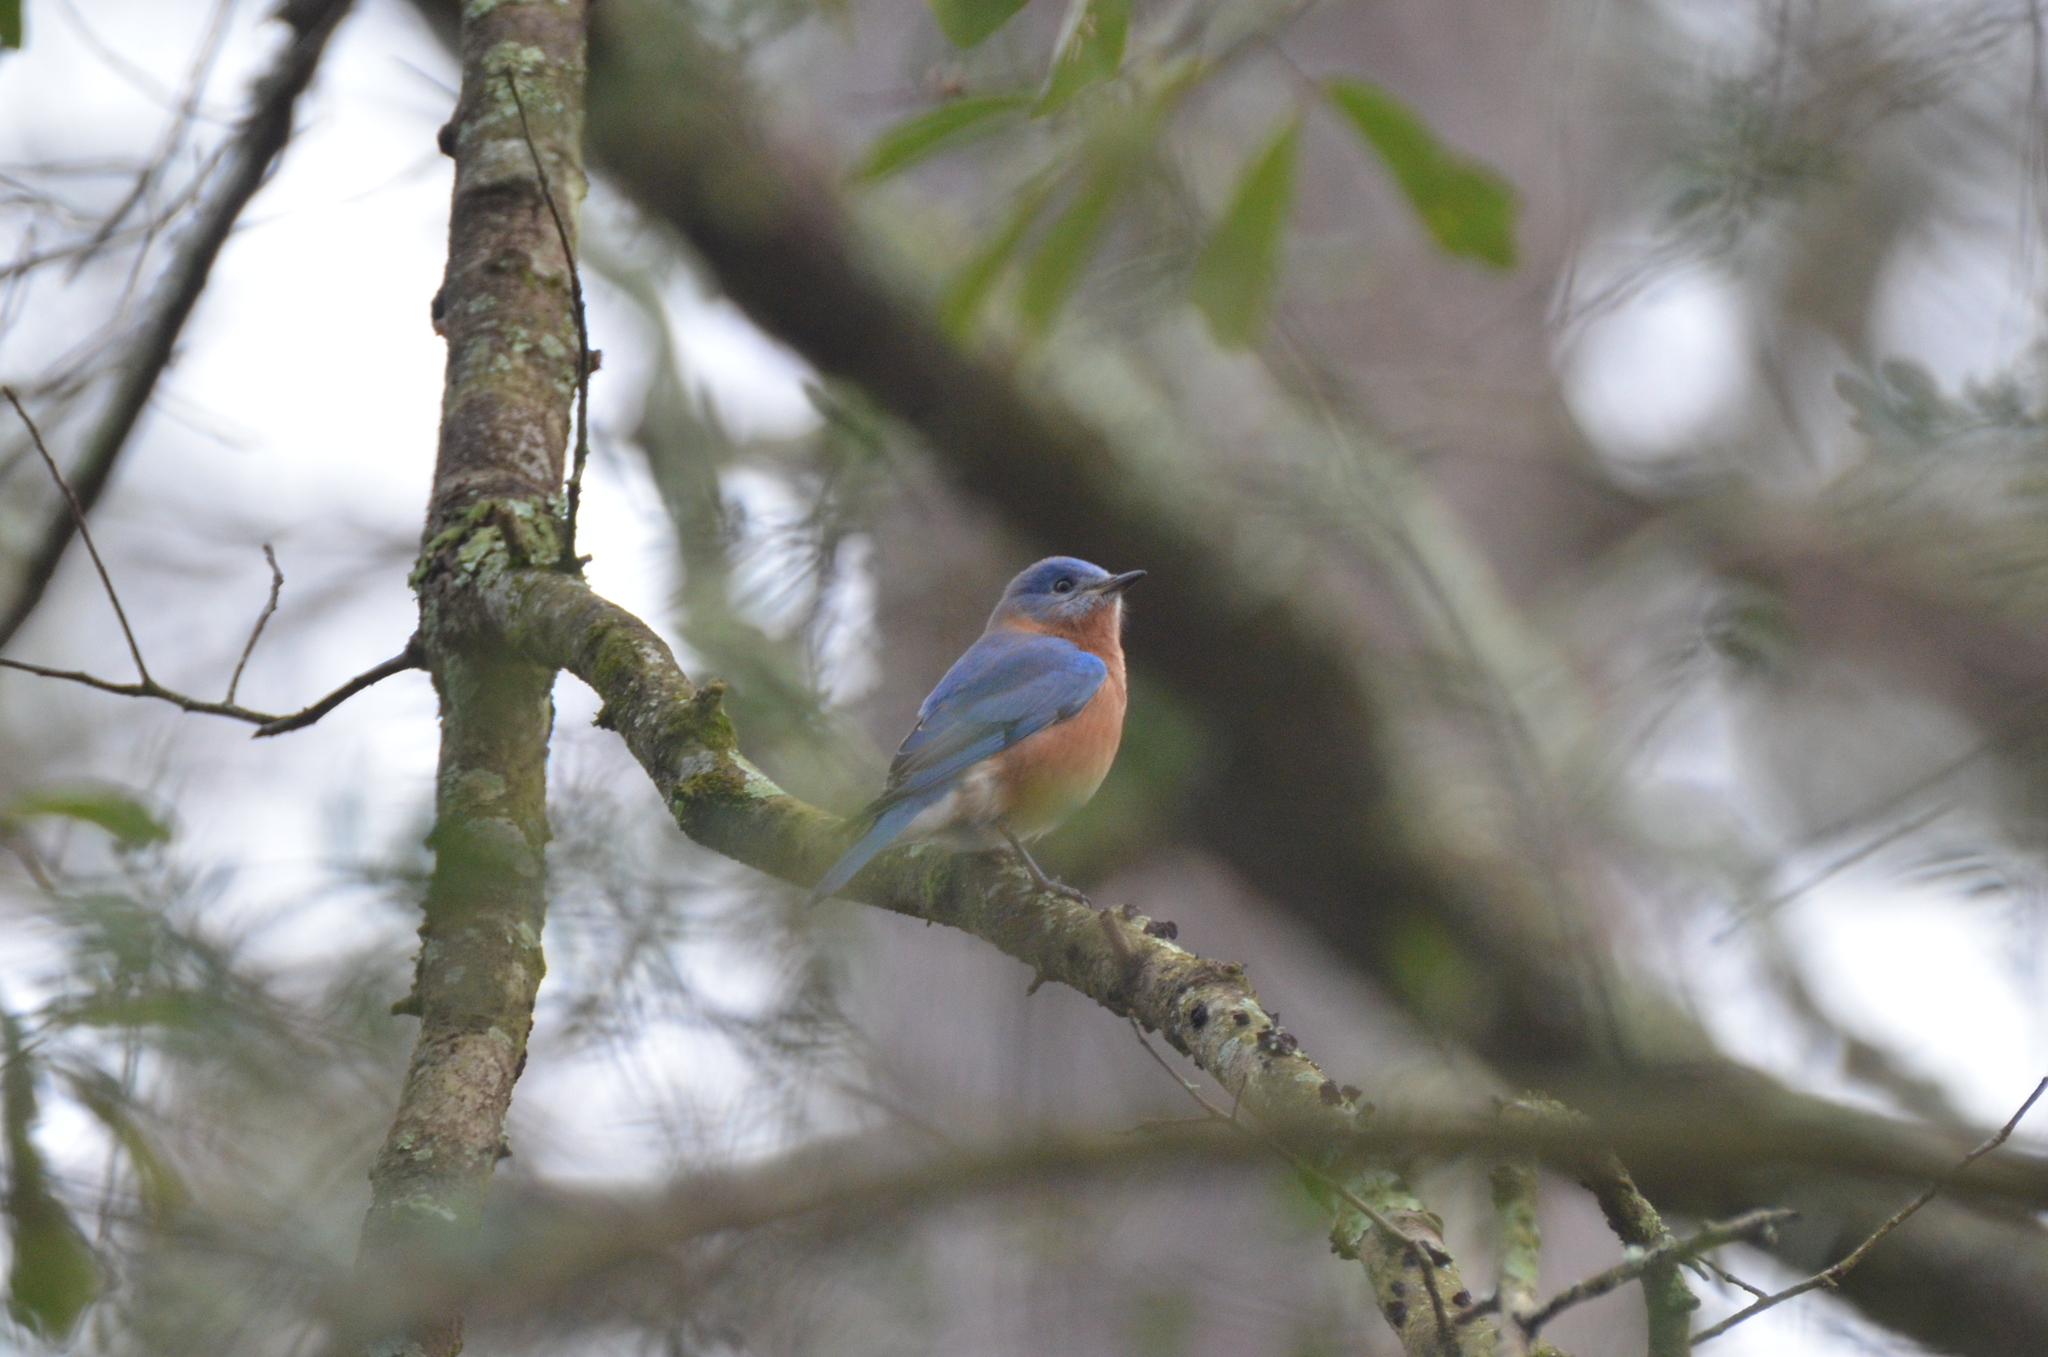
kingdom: Animalia
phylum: Chordata
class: Aves
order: Passeriformes
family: Turdidae
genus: Sialia
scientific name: Sialia sialis
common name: Eastern bluebird
